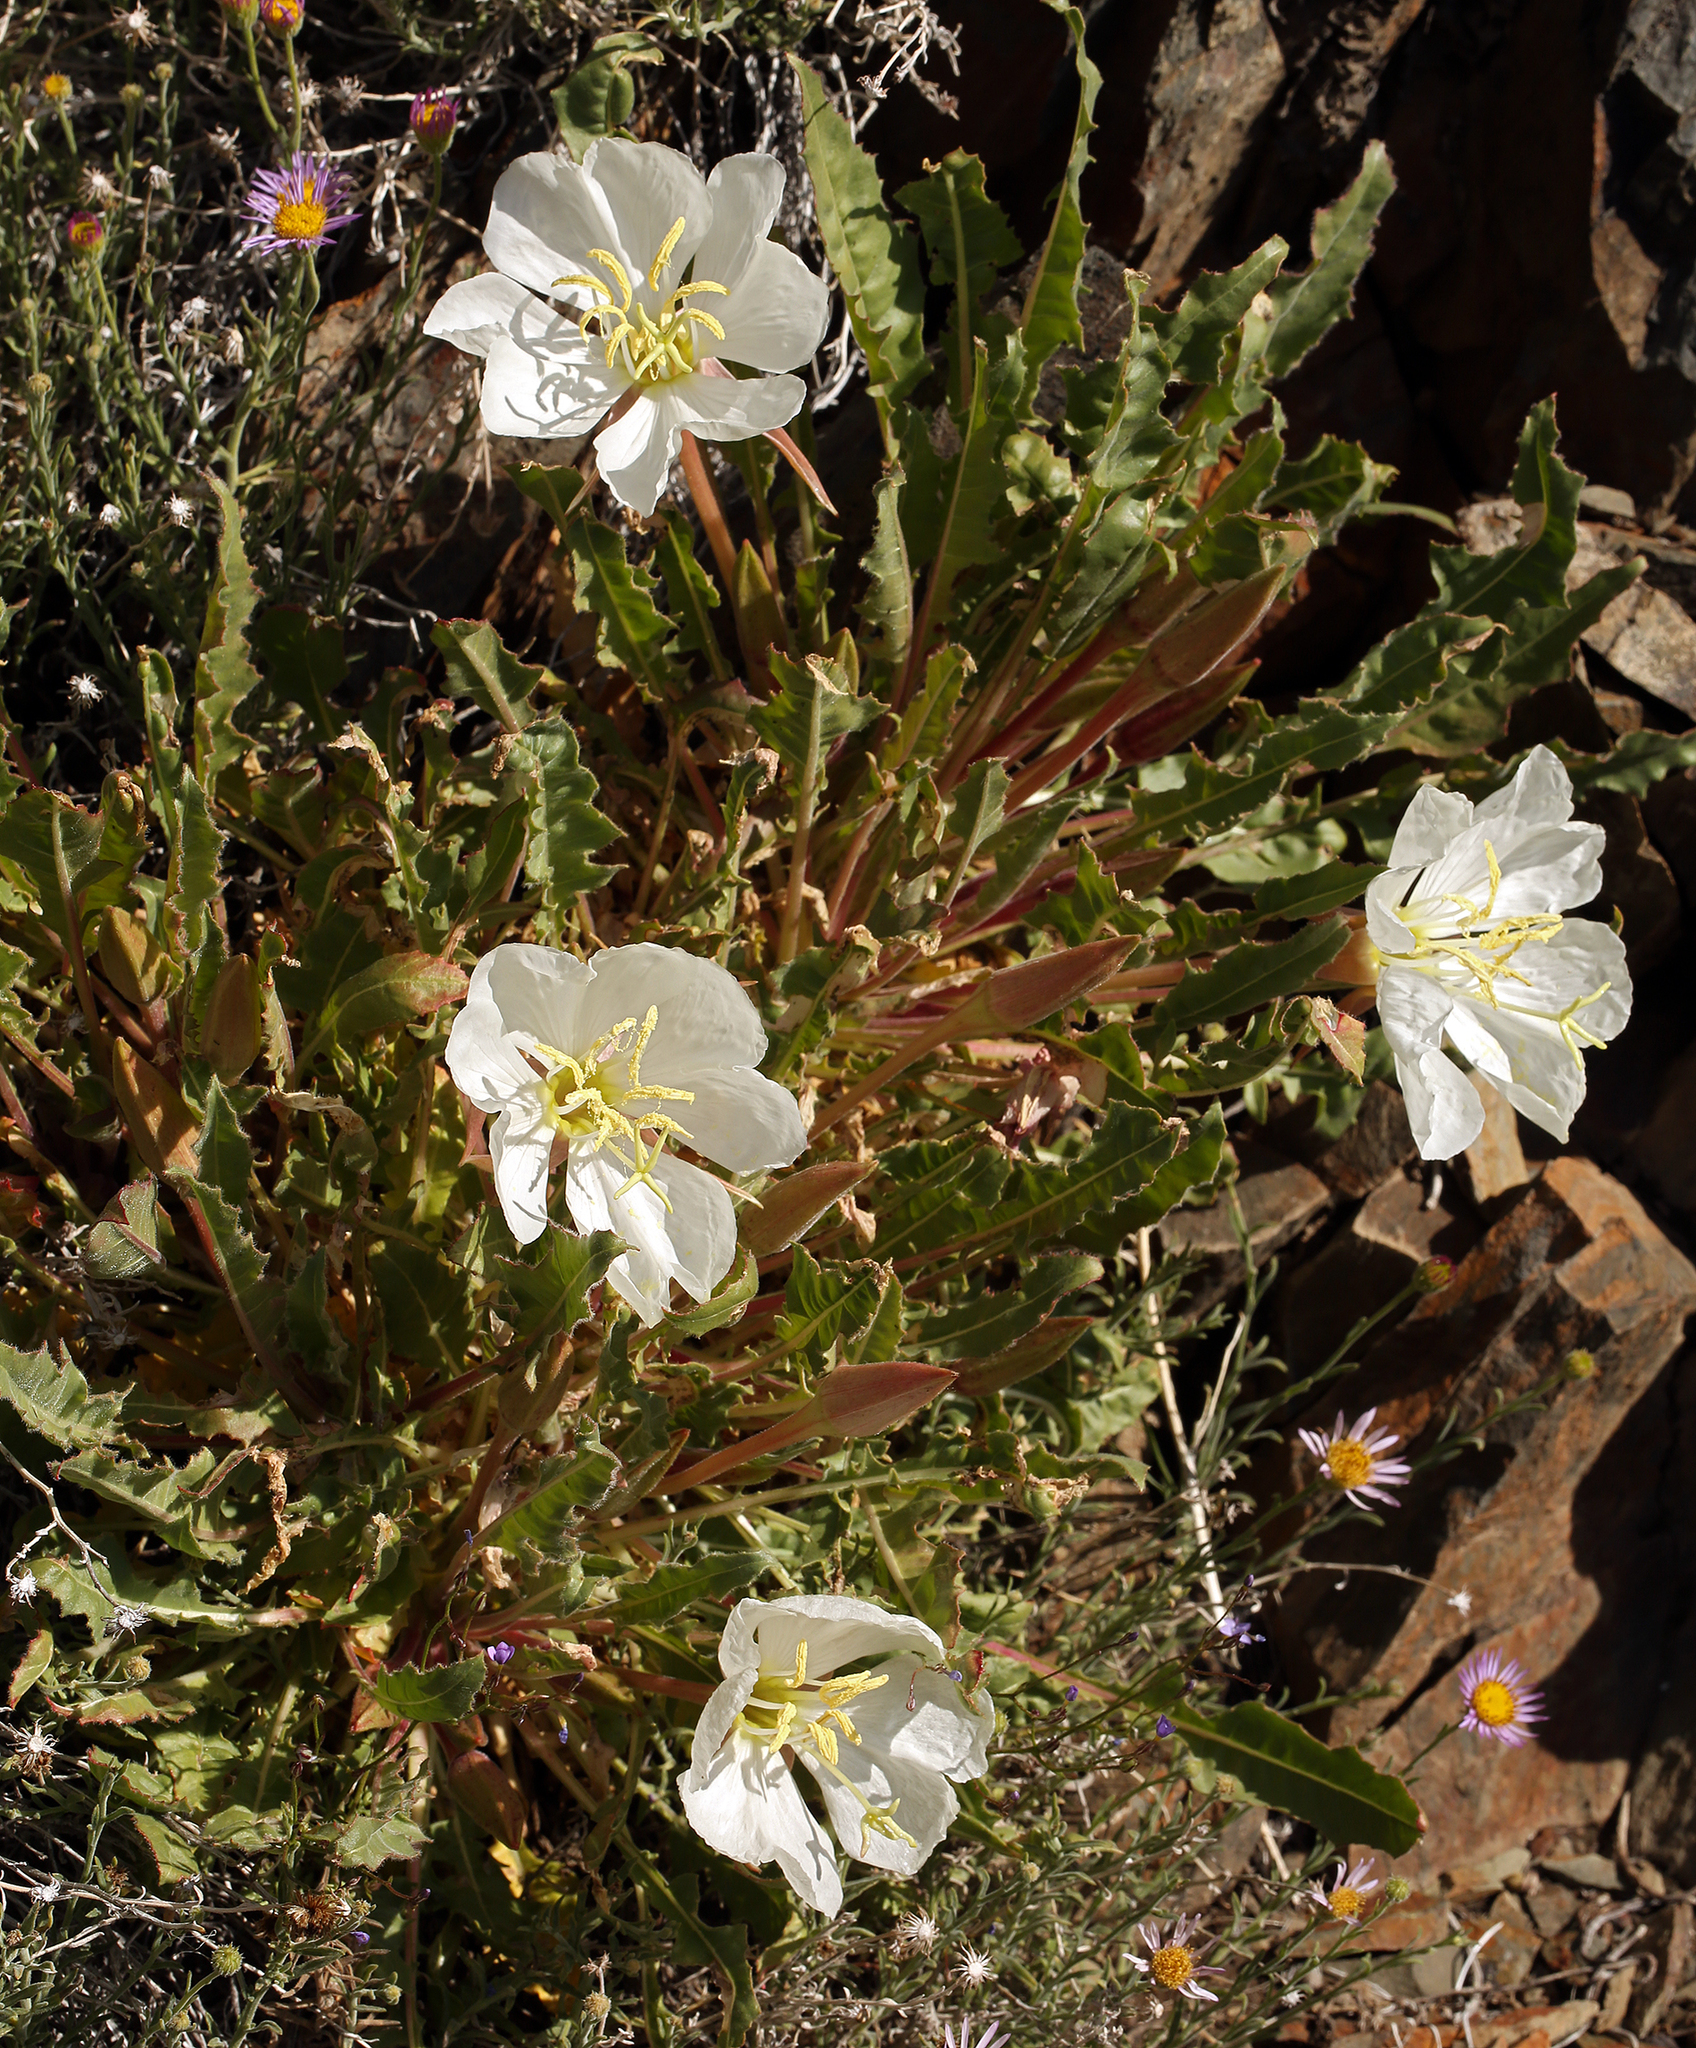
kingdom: Plantae
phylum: Tracheophyta
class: Magnoliopsida
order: Myrtales
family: Onagraceae
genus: Oenothera
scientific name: Oenothera cespitosa
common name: Tufted evening-primrose
